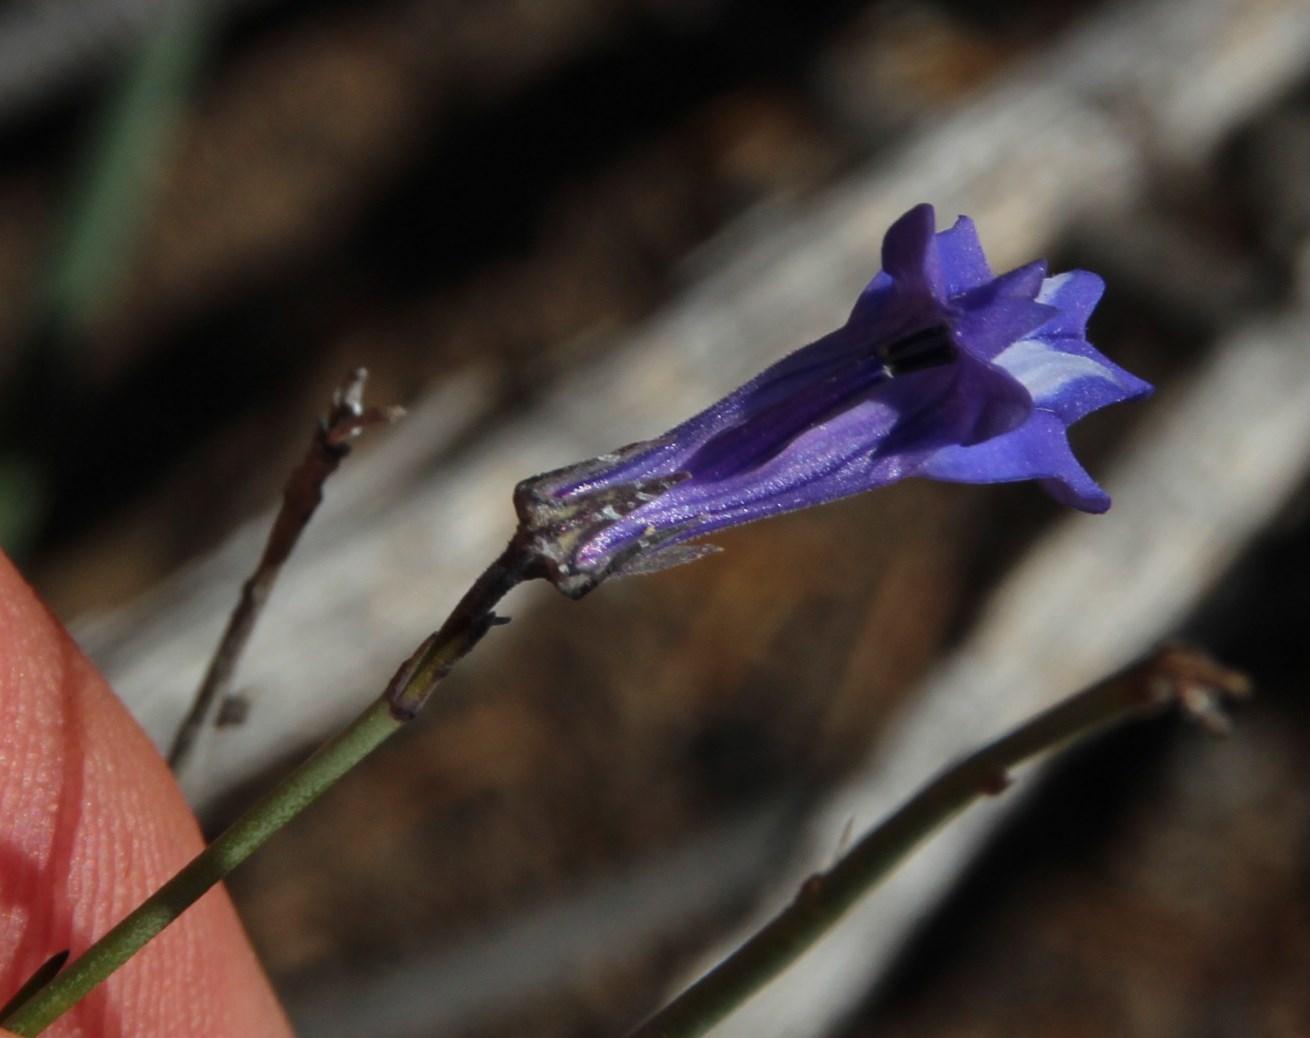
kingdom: Plantae
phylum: Tracheophyta
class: Magnoliopsida
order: Asterales
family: Campanulaceae
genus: Lobelia
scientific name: Lobelia linearis
